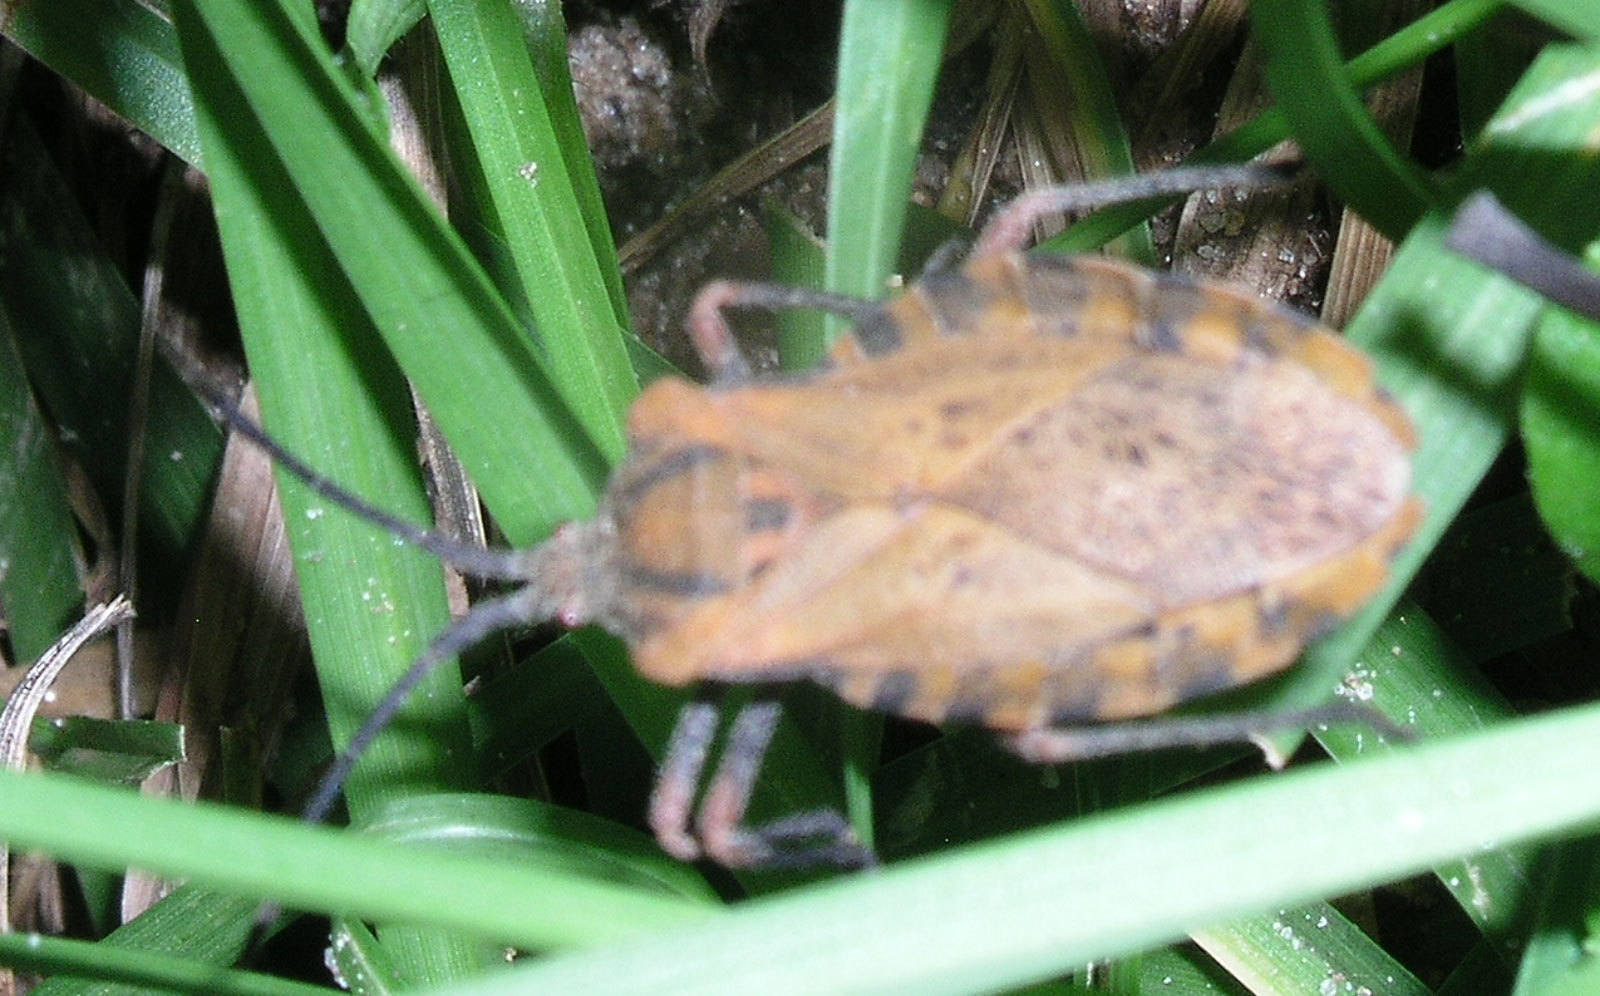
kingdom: Animalia
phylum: Arthropoda
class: Insecta
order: Hemiptera
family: Coreidae
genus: Spartocera
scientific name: Spartocera fusca
